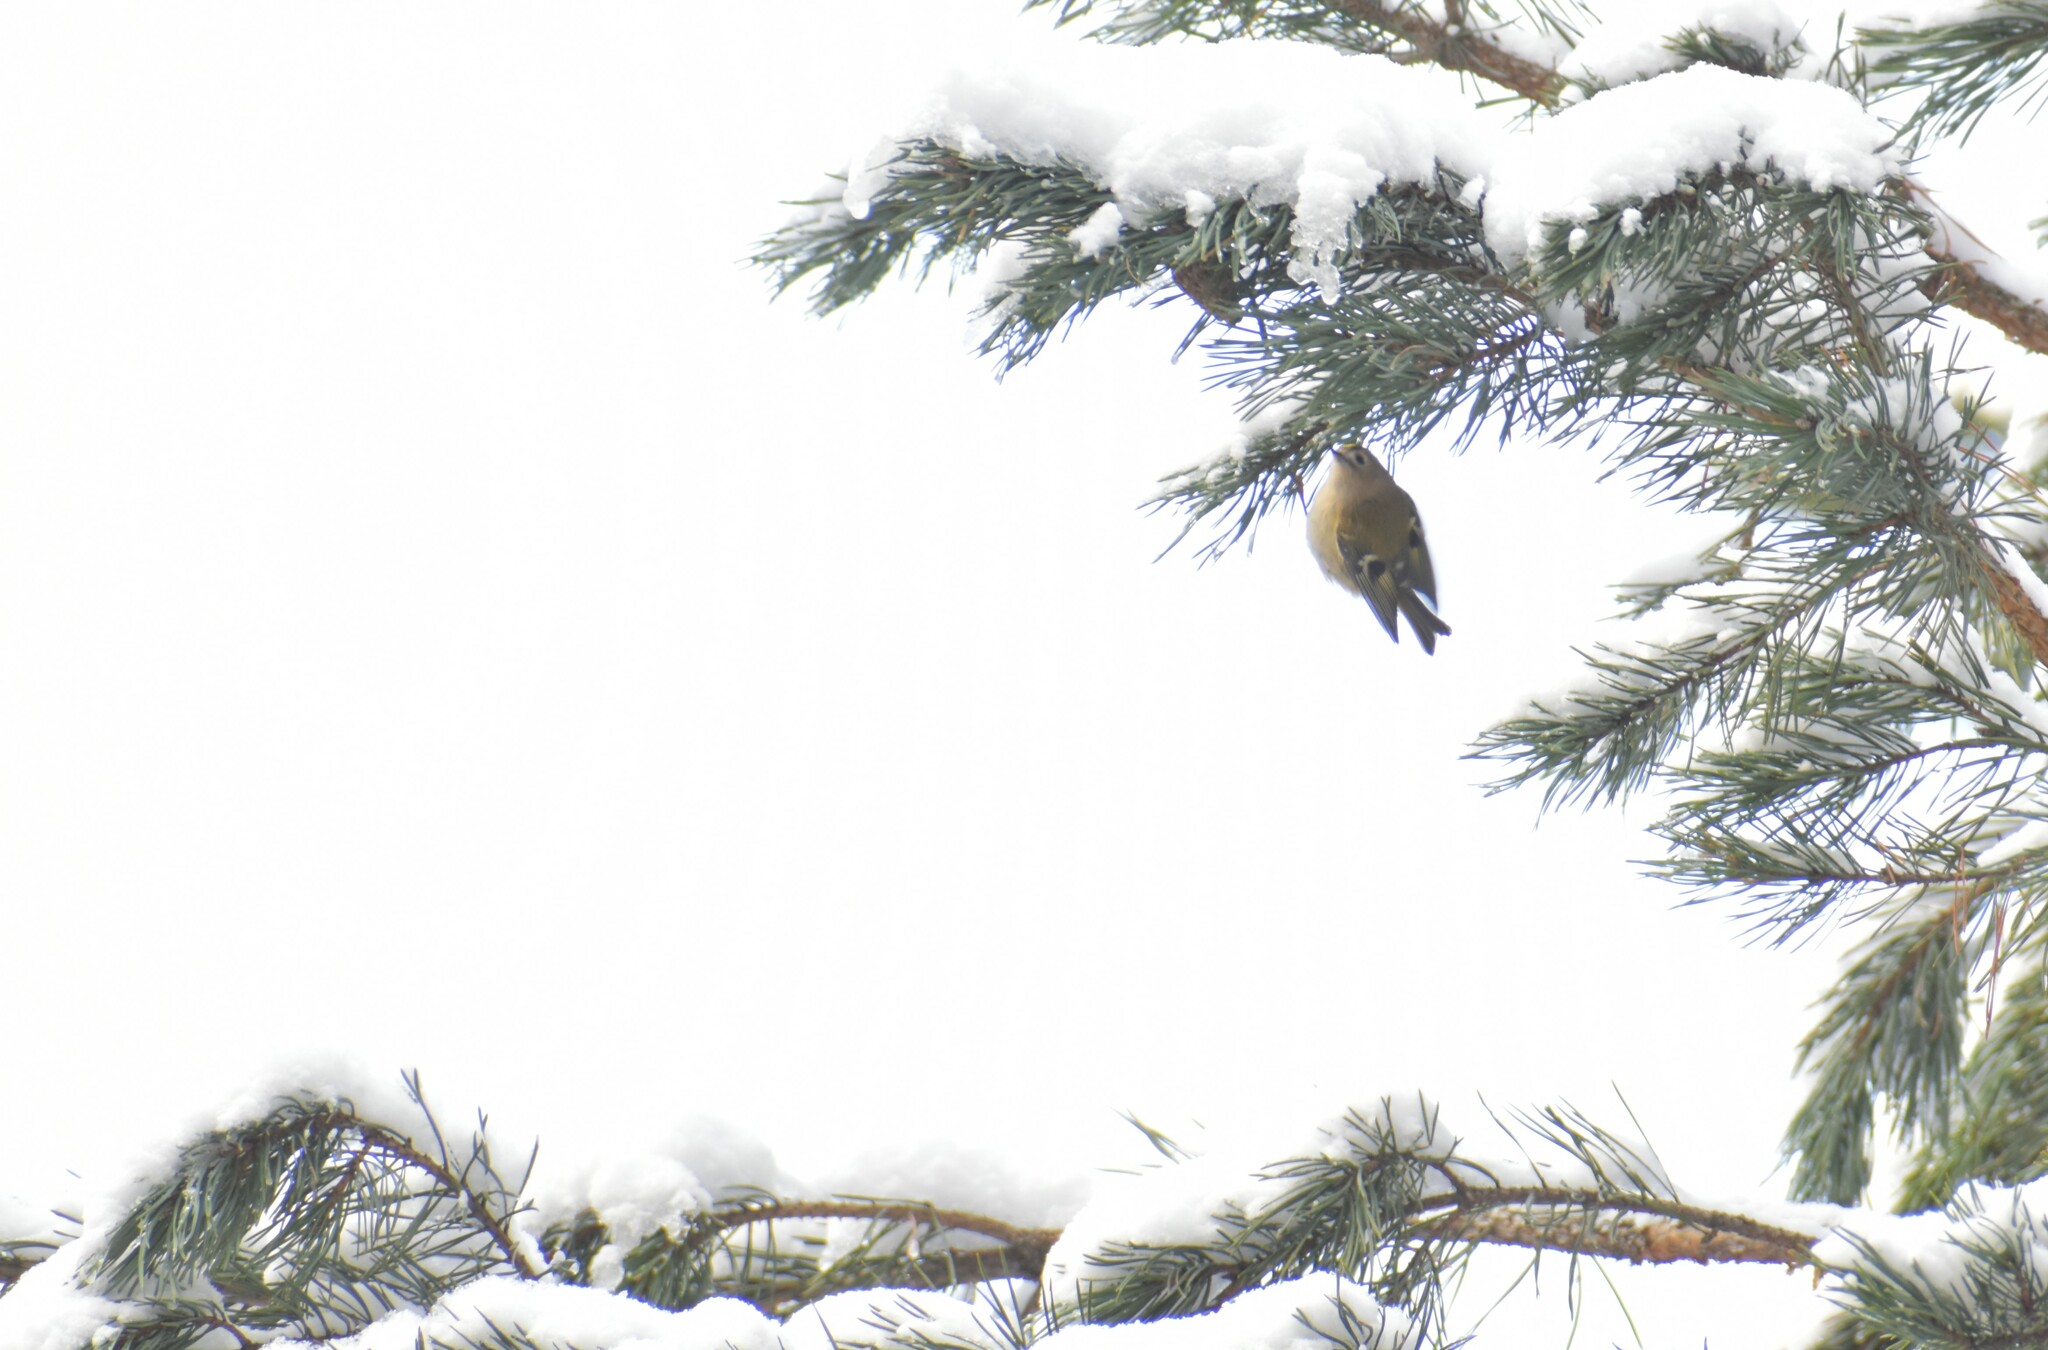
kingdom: Animalia
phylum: Chordata
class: Aves
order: Passeriformes
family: Regulidae
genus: Regulus
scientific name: Regulus regulus
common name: Goldcrest
